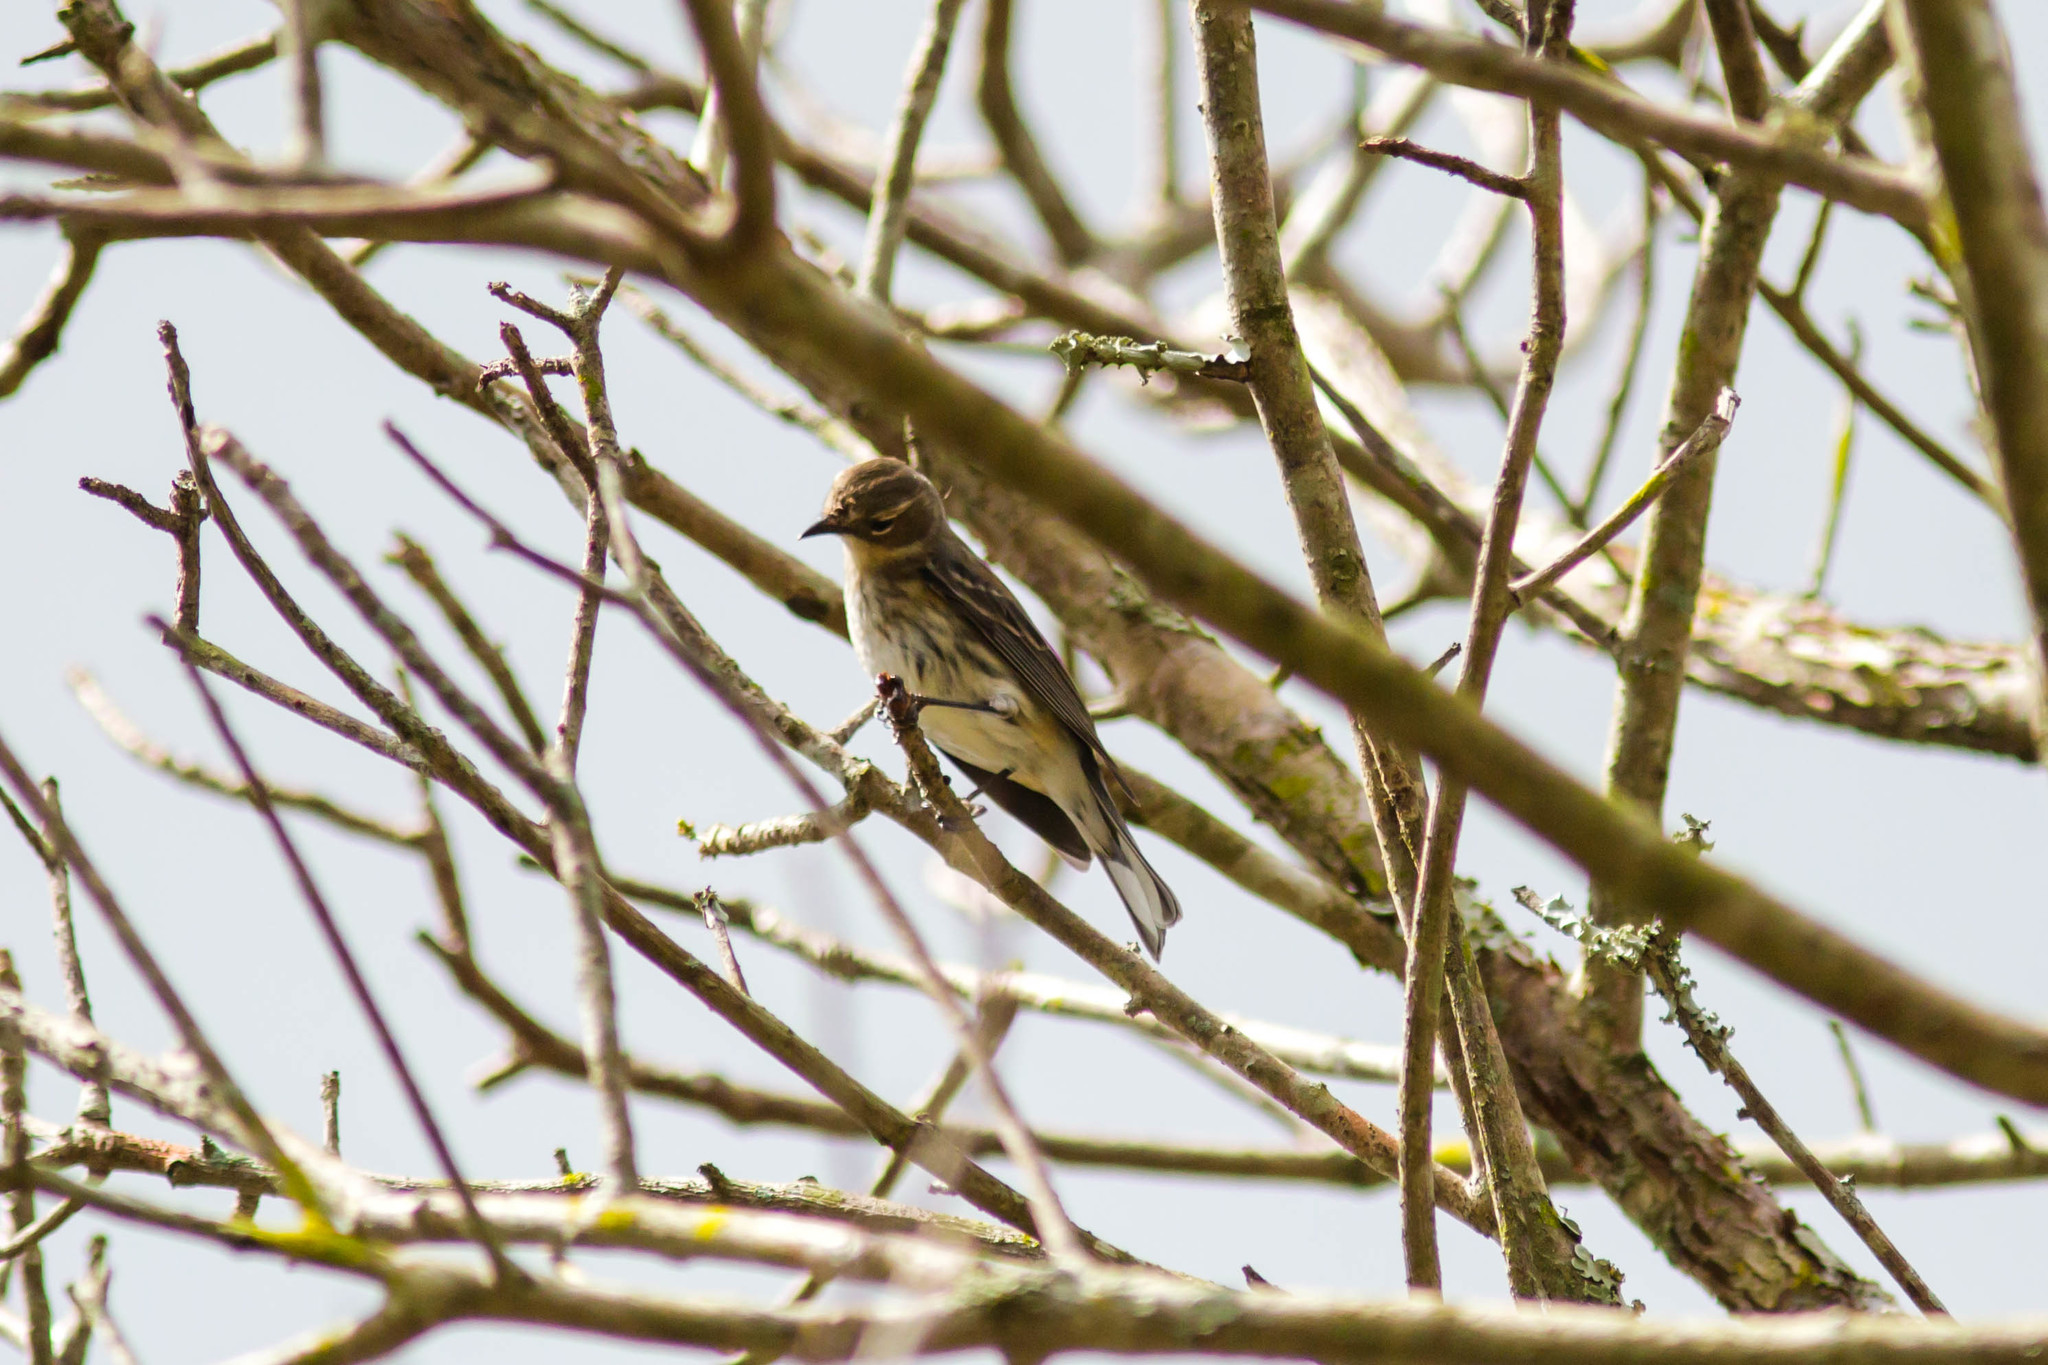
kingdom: Animalia
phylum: Chordata
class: Aves
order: Passeriformes
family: Parulidae
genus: Setophaga
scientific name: Setophaga coronata
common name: Myrtle warbler
